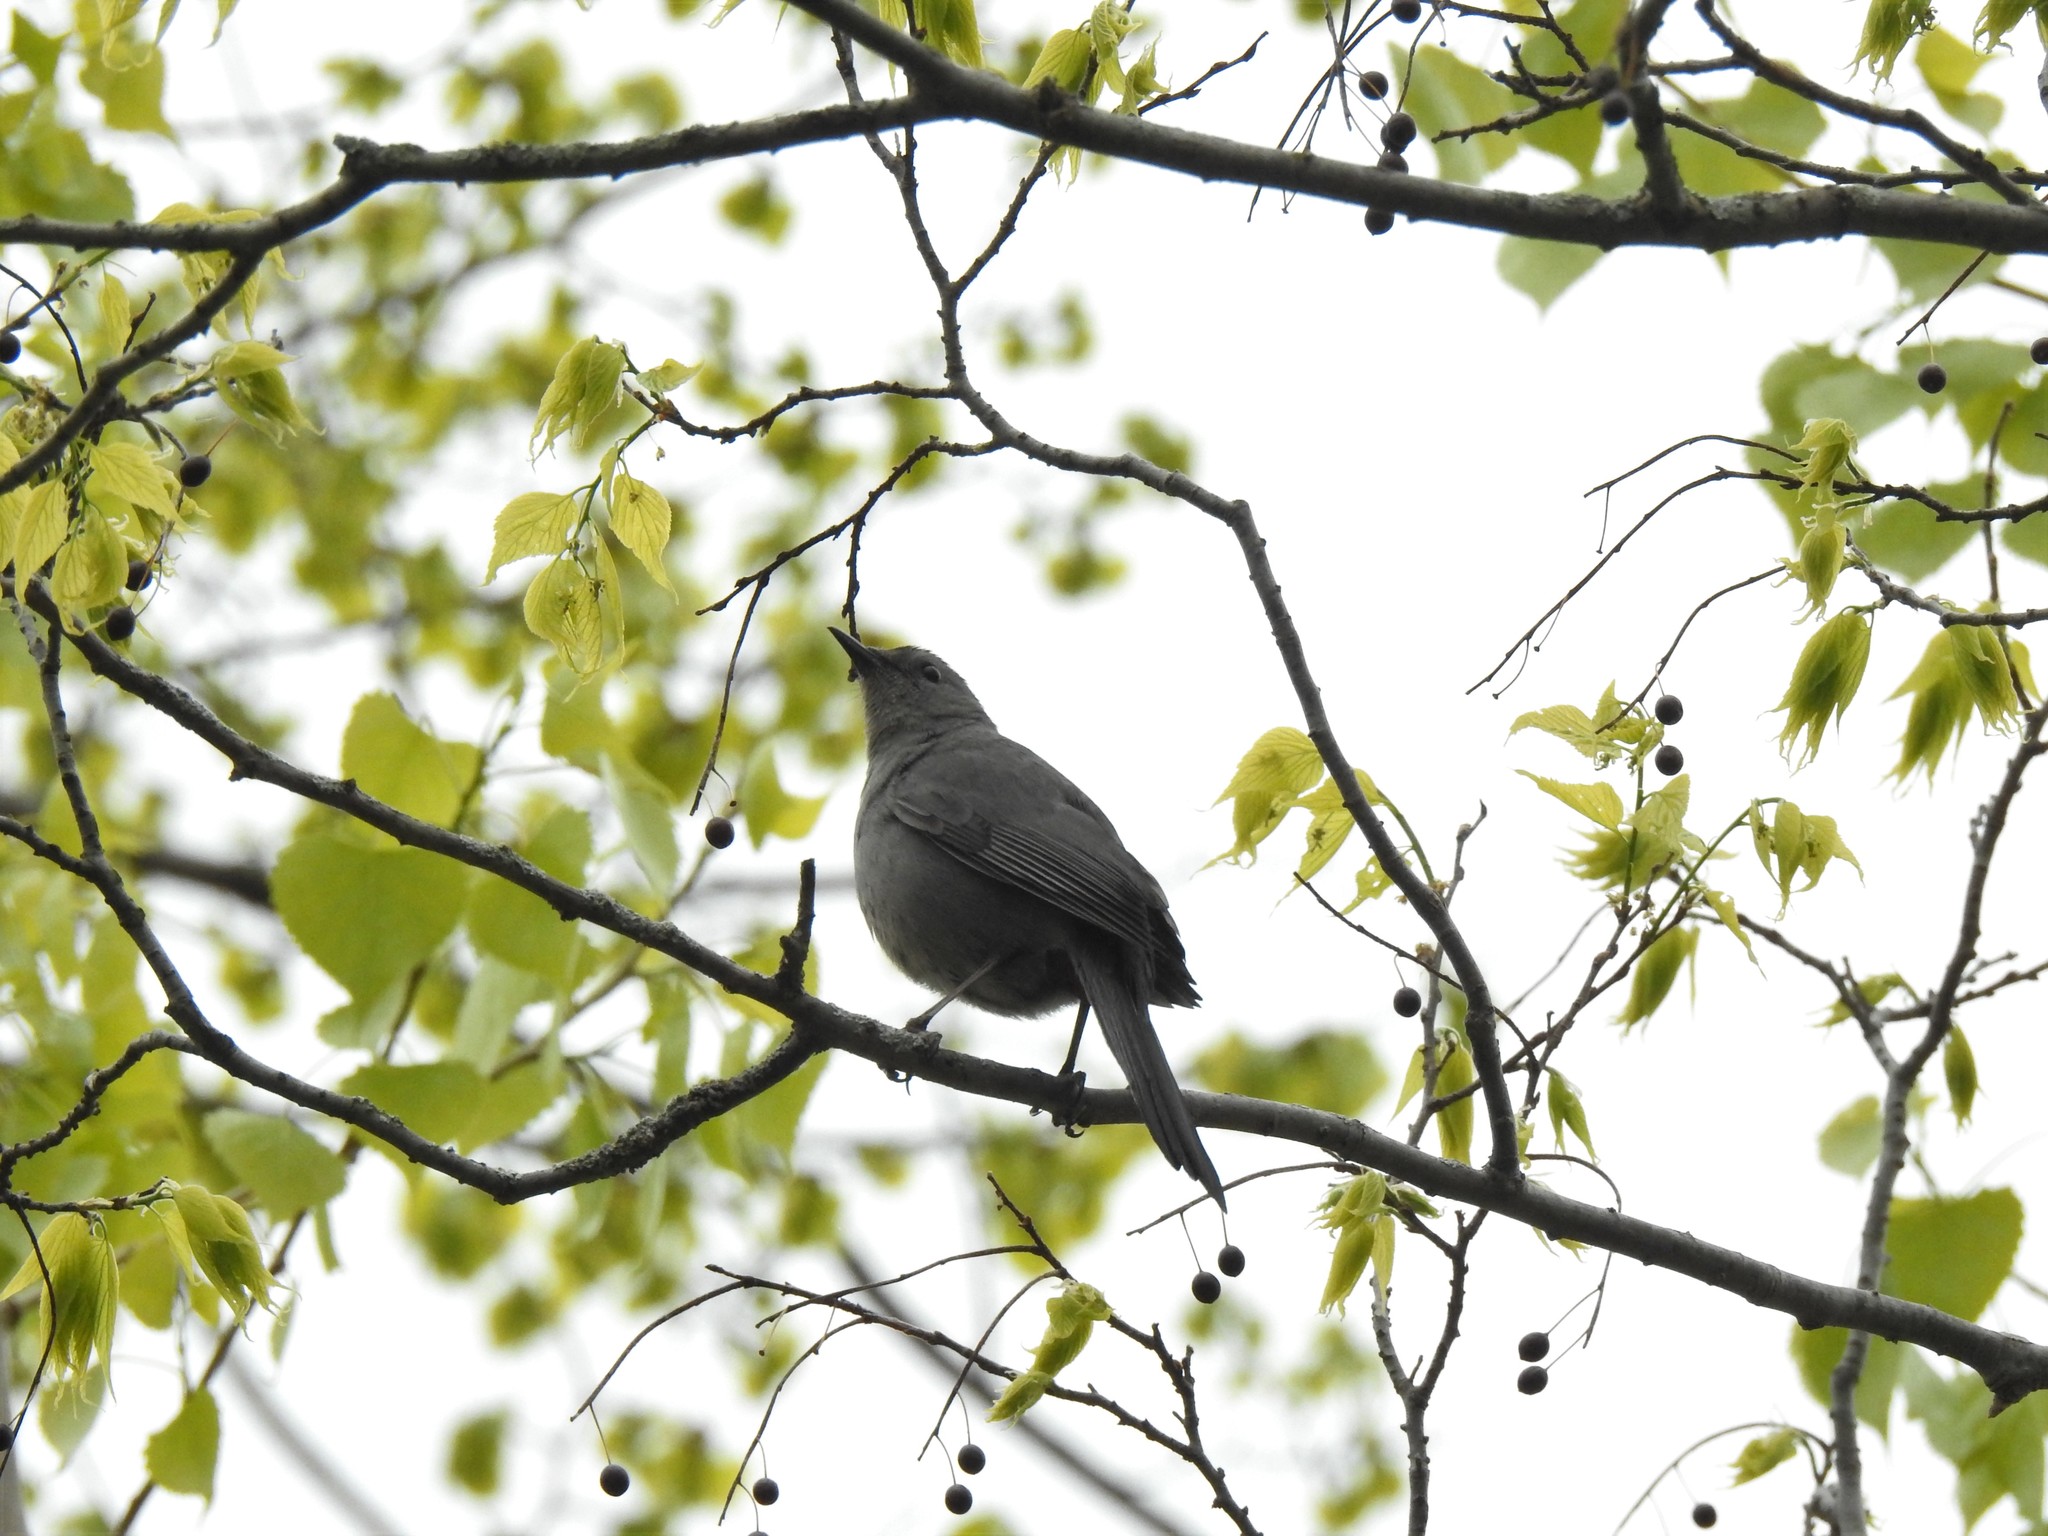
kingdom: Animalia
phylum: Chordata
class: Aves
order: Passeriformes
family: Mimidae
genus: Dumetella
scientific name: Dumetella carolinensis
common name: Gray catbird
